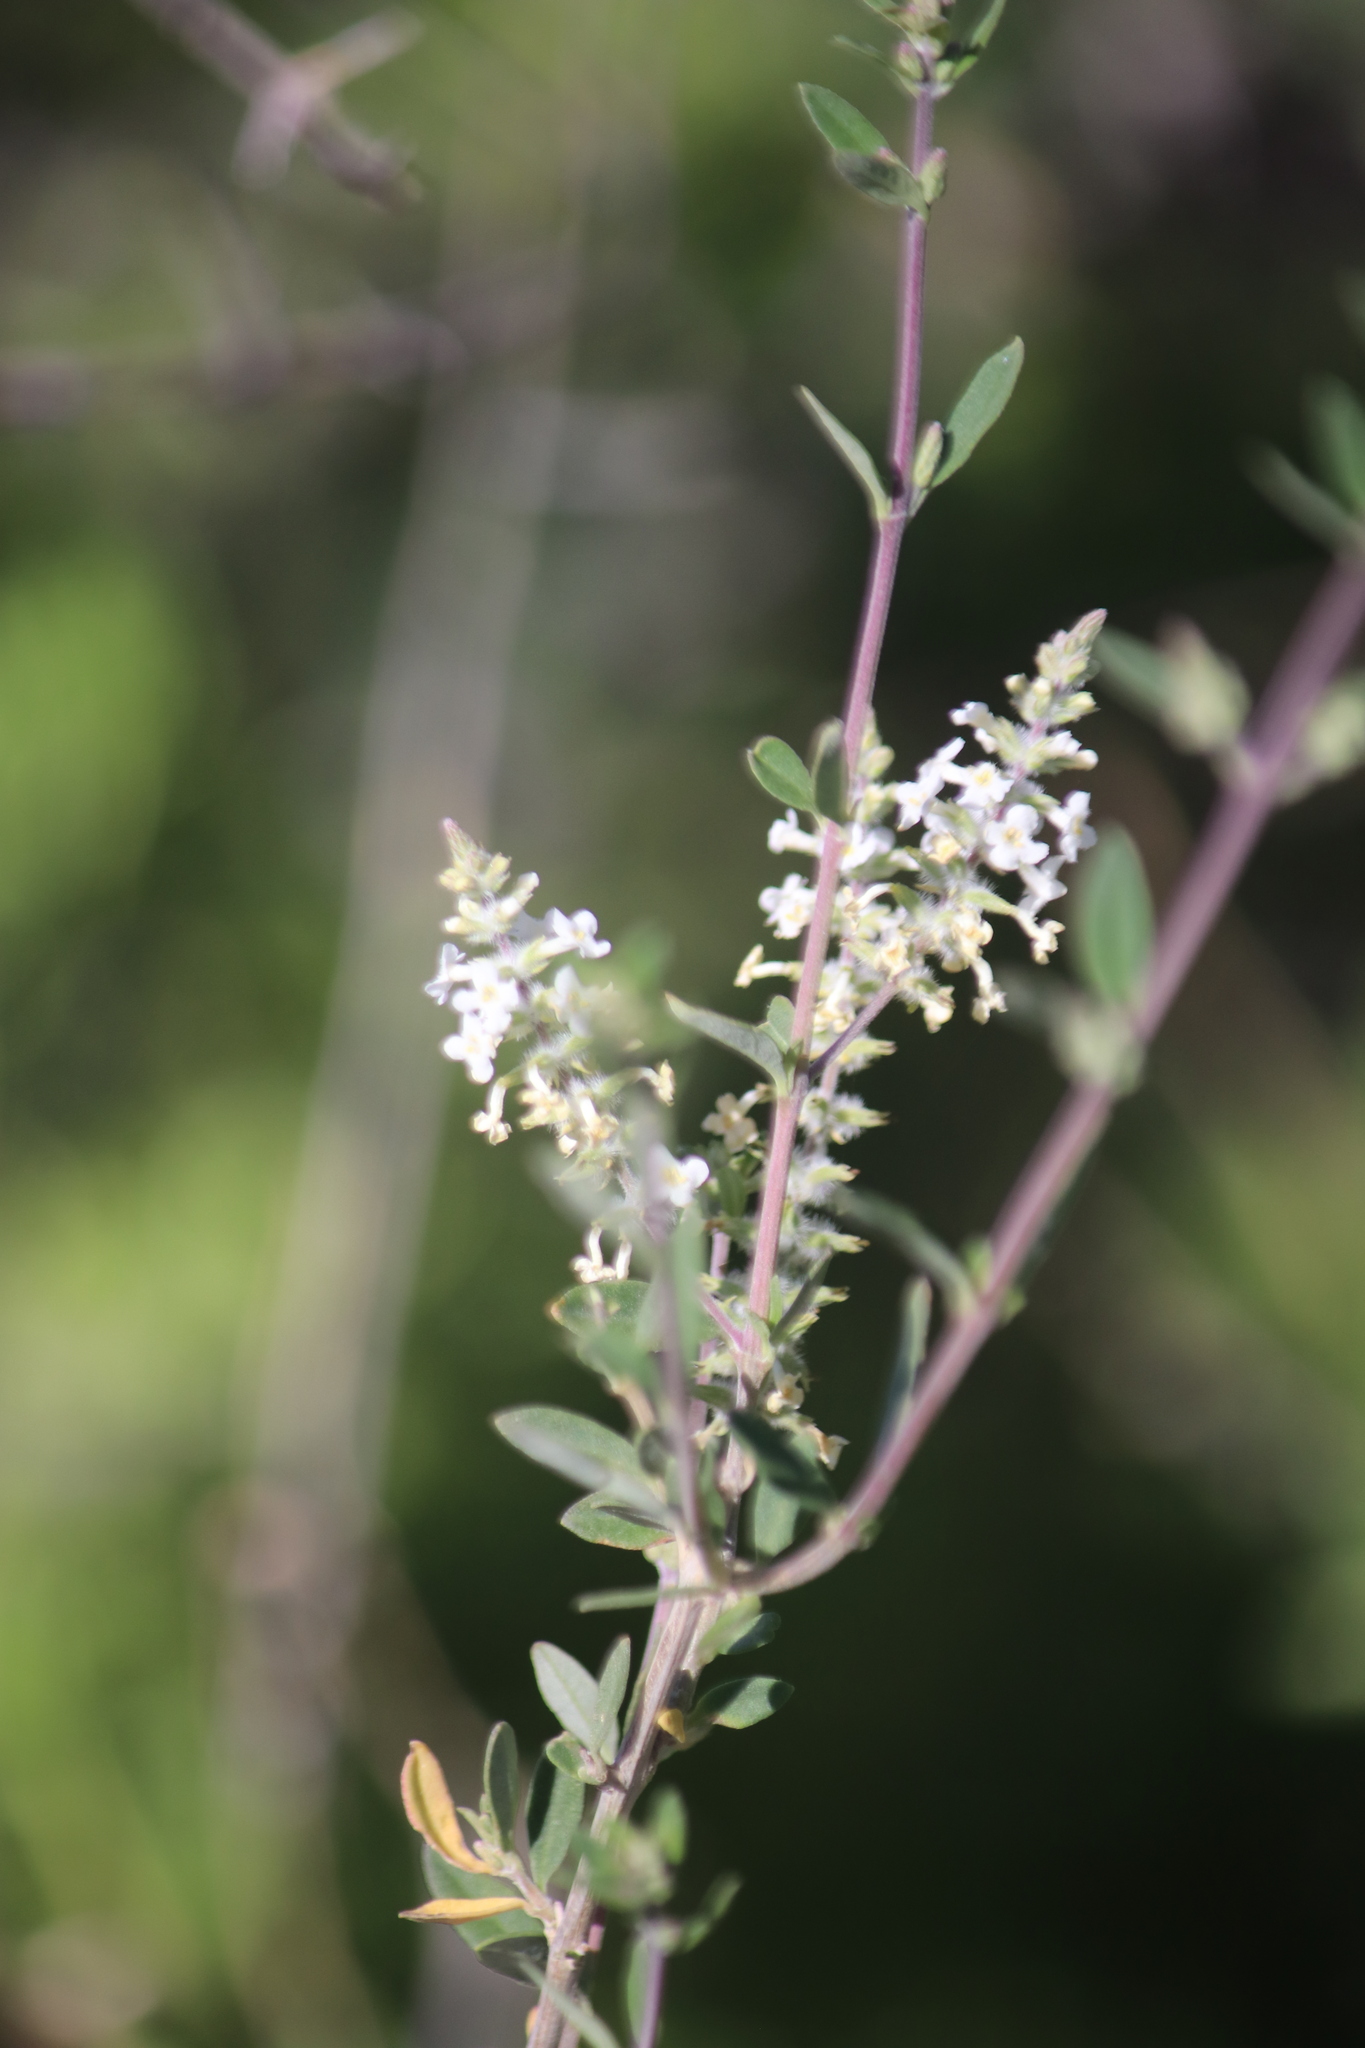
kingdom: Plantae
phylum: Tracheophyta
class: Magnoliopsida
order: Lamiales
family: Verbenaceae
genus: Aloysia
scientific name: Aloysia gratissima
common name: Common bee-brush
